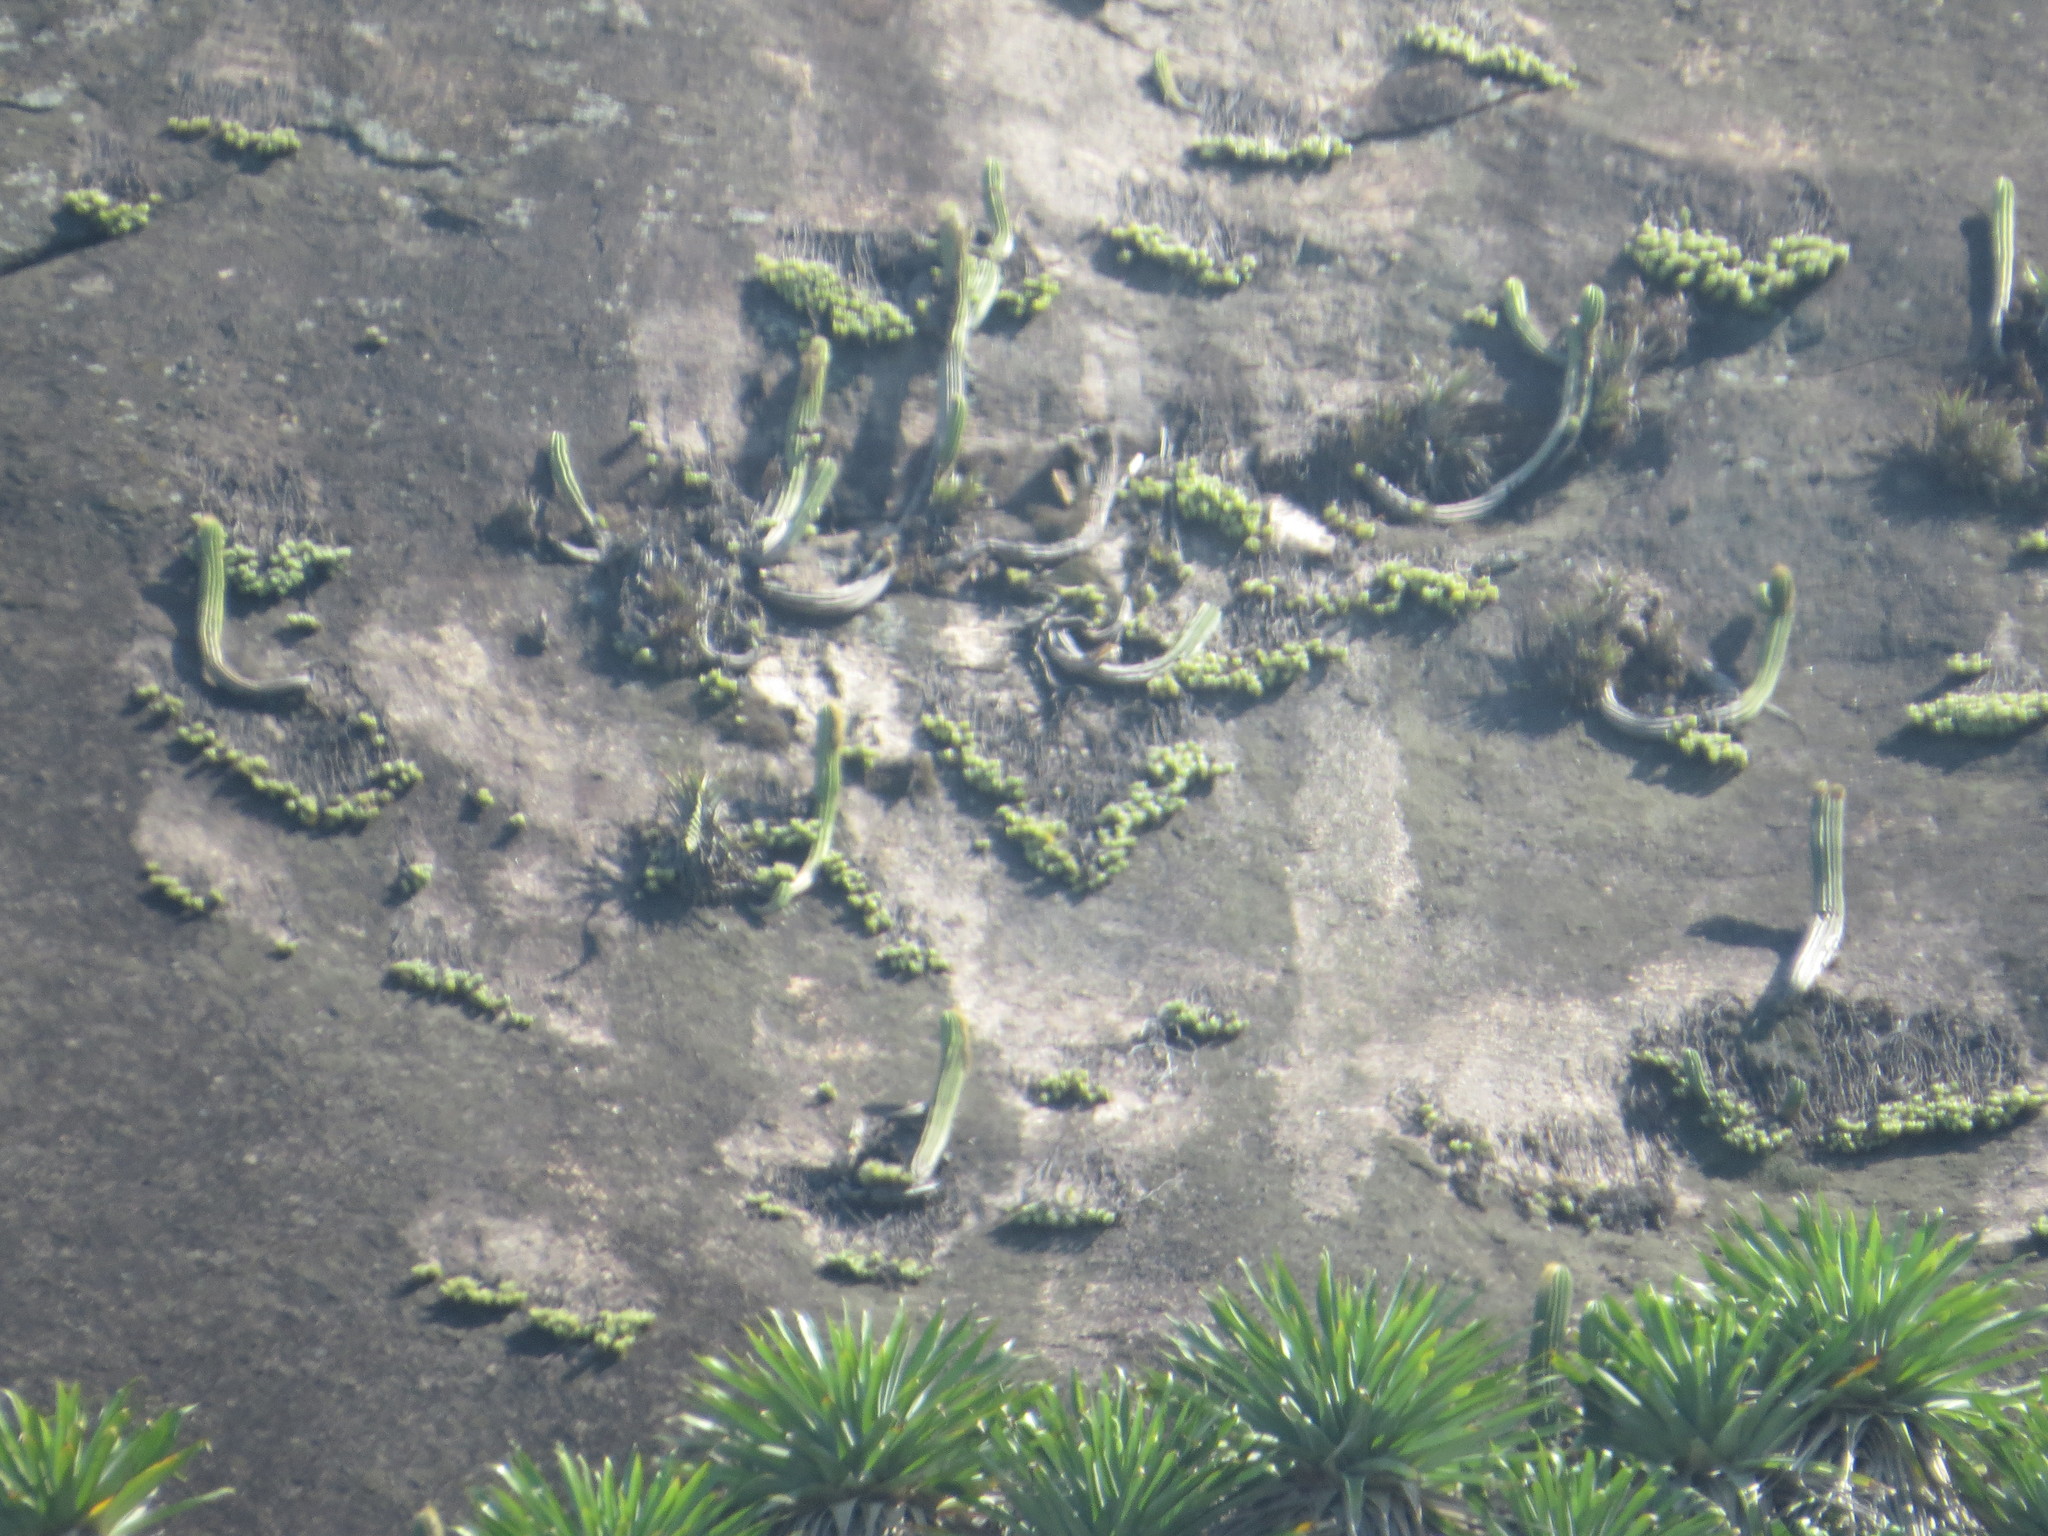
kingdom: Plantae
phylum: Tracheophyta
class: Magnoliopsida
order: Caryophyllales
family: Cactaceae
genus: Coleocephalocereus
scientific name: Coleocephalocereus fluminensis
